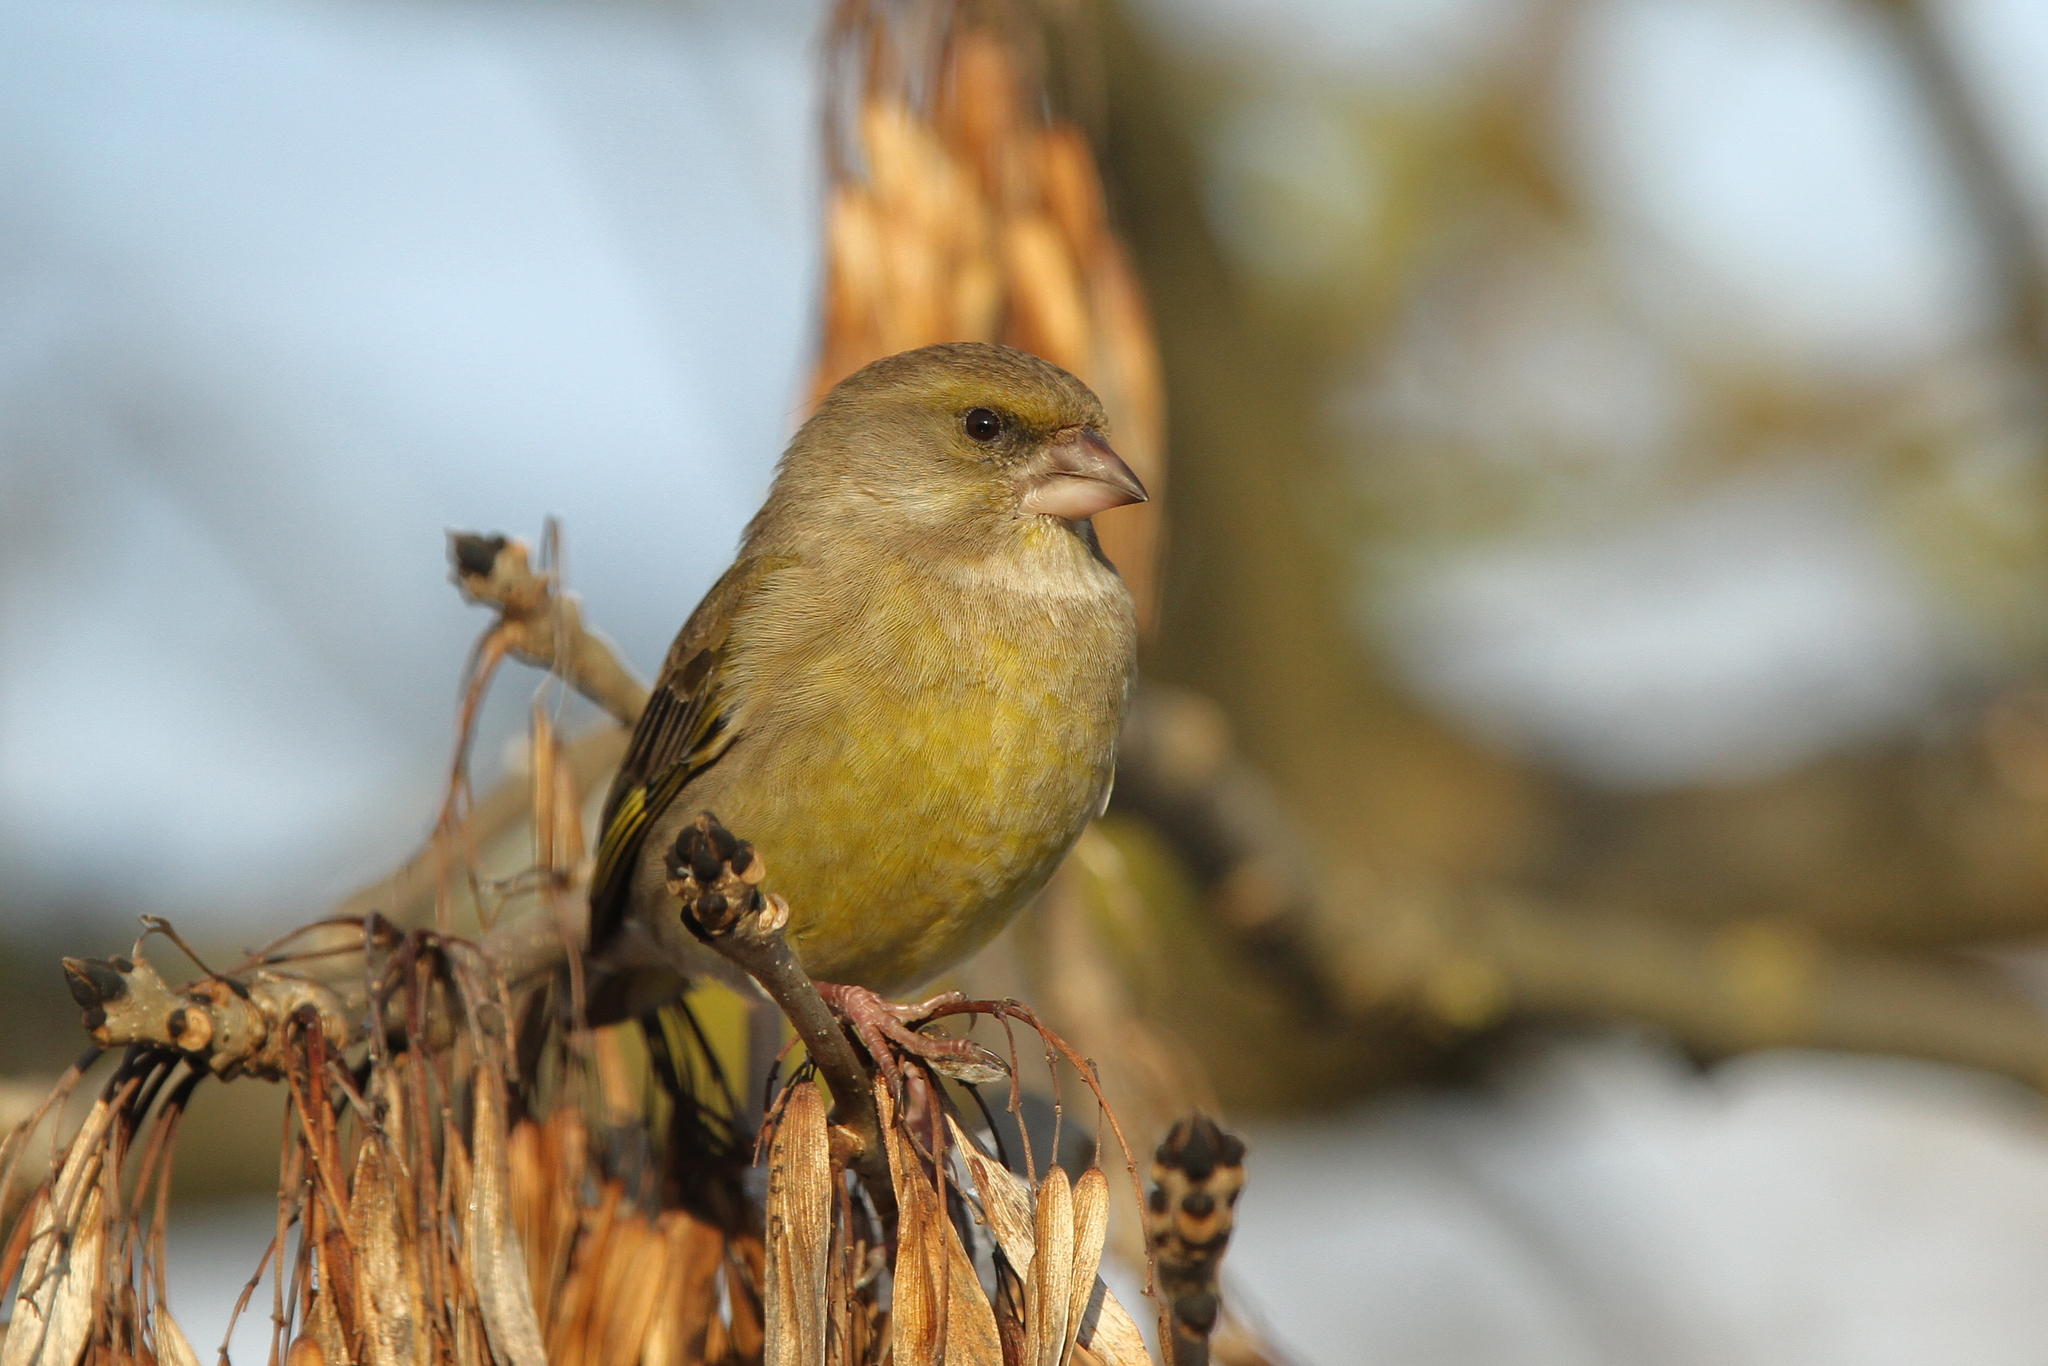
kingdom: Plantae
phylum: Tracheophyta
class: Liliopsida
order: Poales
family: Poaceae
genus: Chloris
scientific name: Chloris chloris
